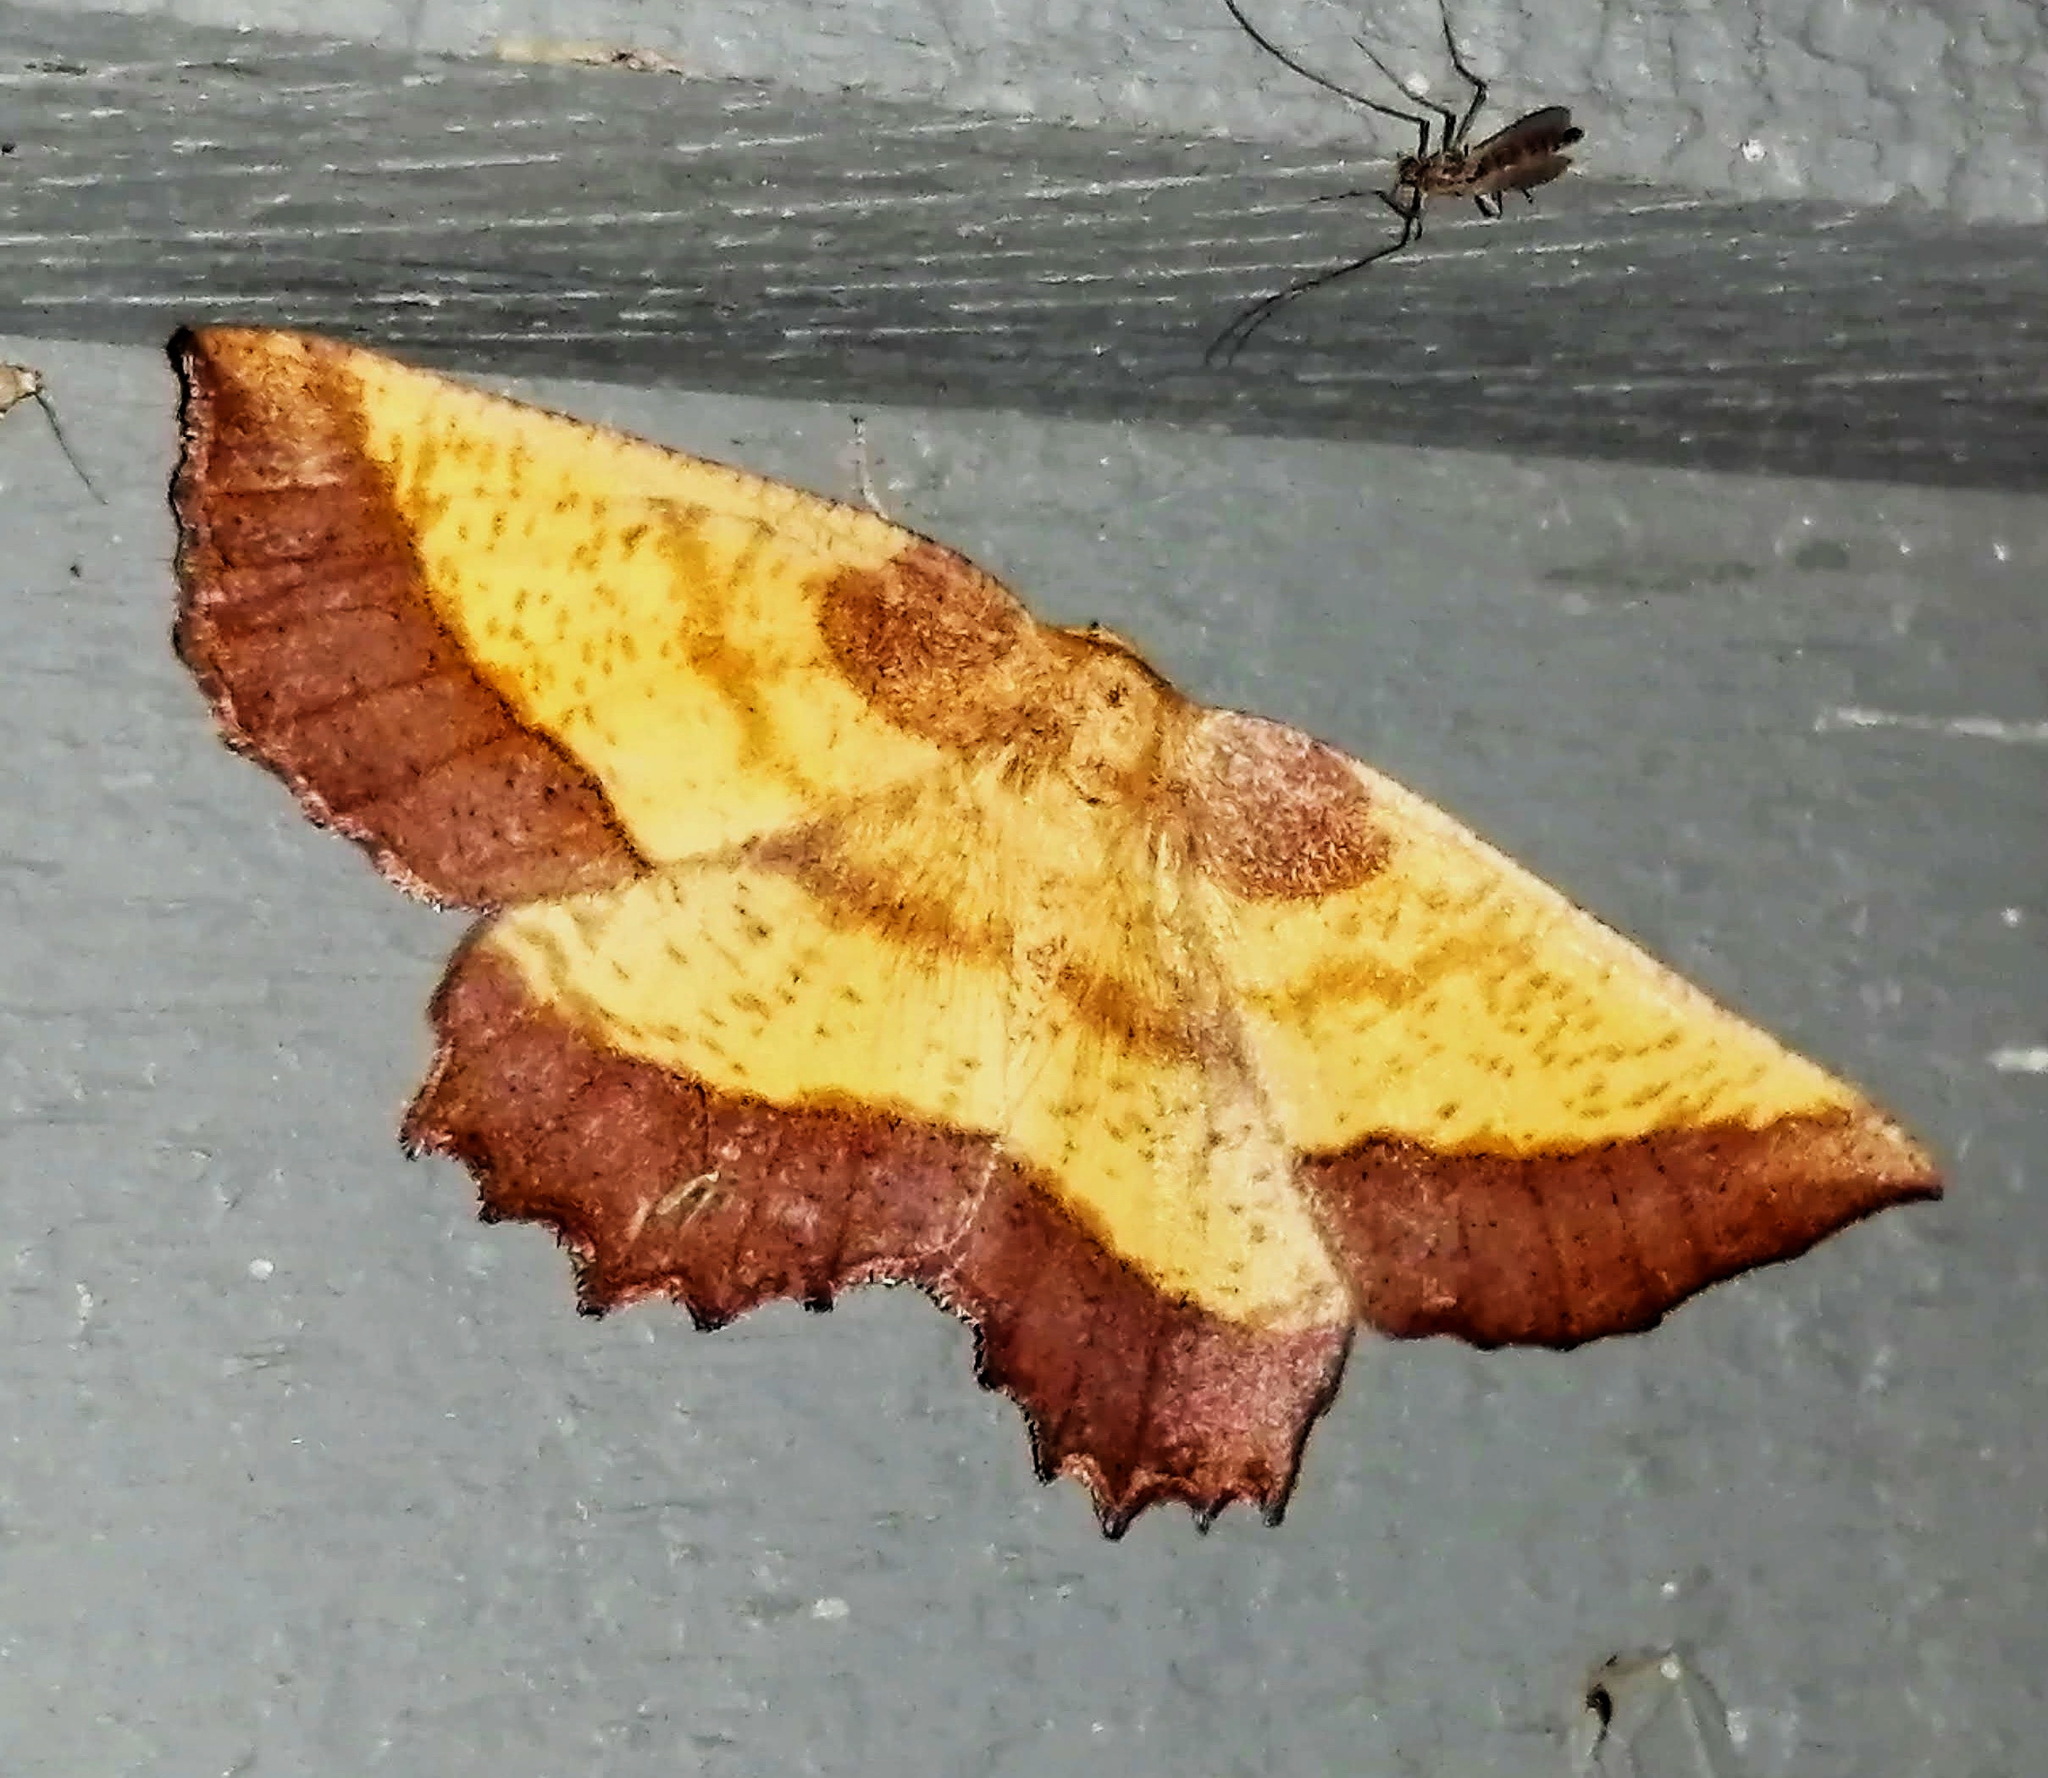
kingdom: Animalia
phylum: Arthropoda
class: Insecta
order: Lepidoptera
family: Geometridae
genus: Euchlaena
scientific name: Euchlaena serrata
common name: Saw wing
